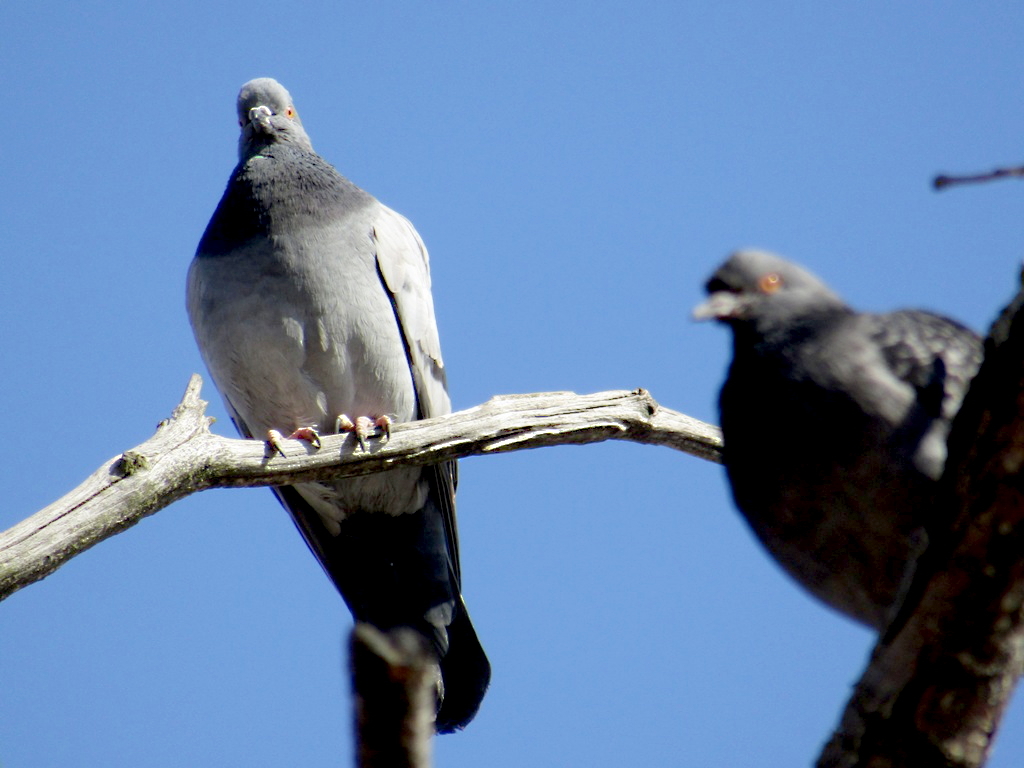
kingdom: Animalia
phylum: Chordata
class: Aves
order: Columbiformes
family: Columbidae
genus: Columba
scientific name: Columba livia
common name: Rock pigeon
